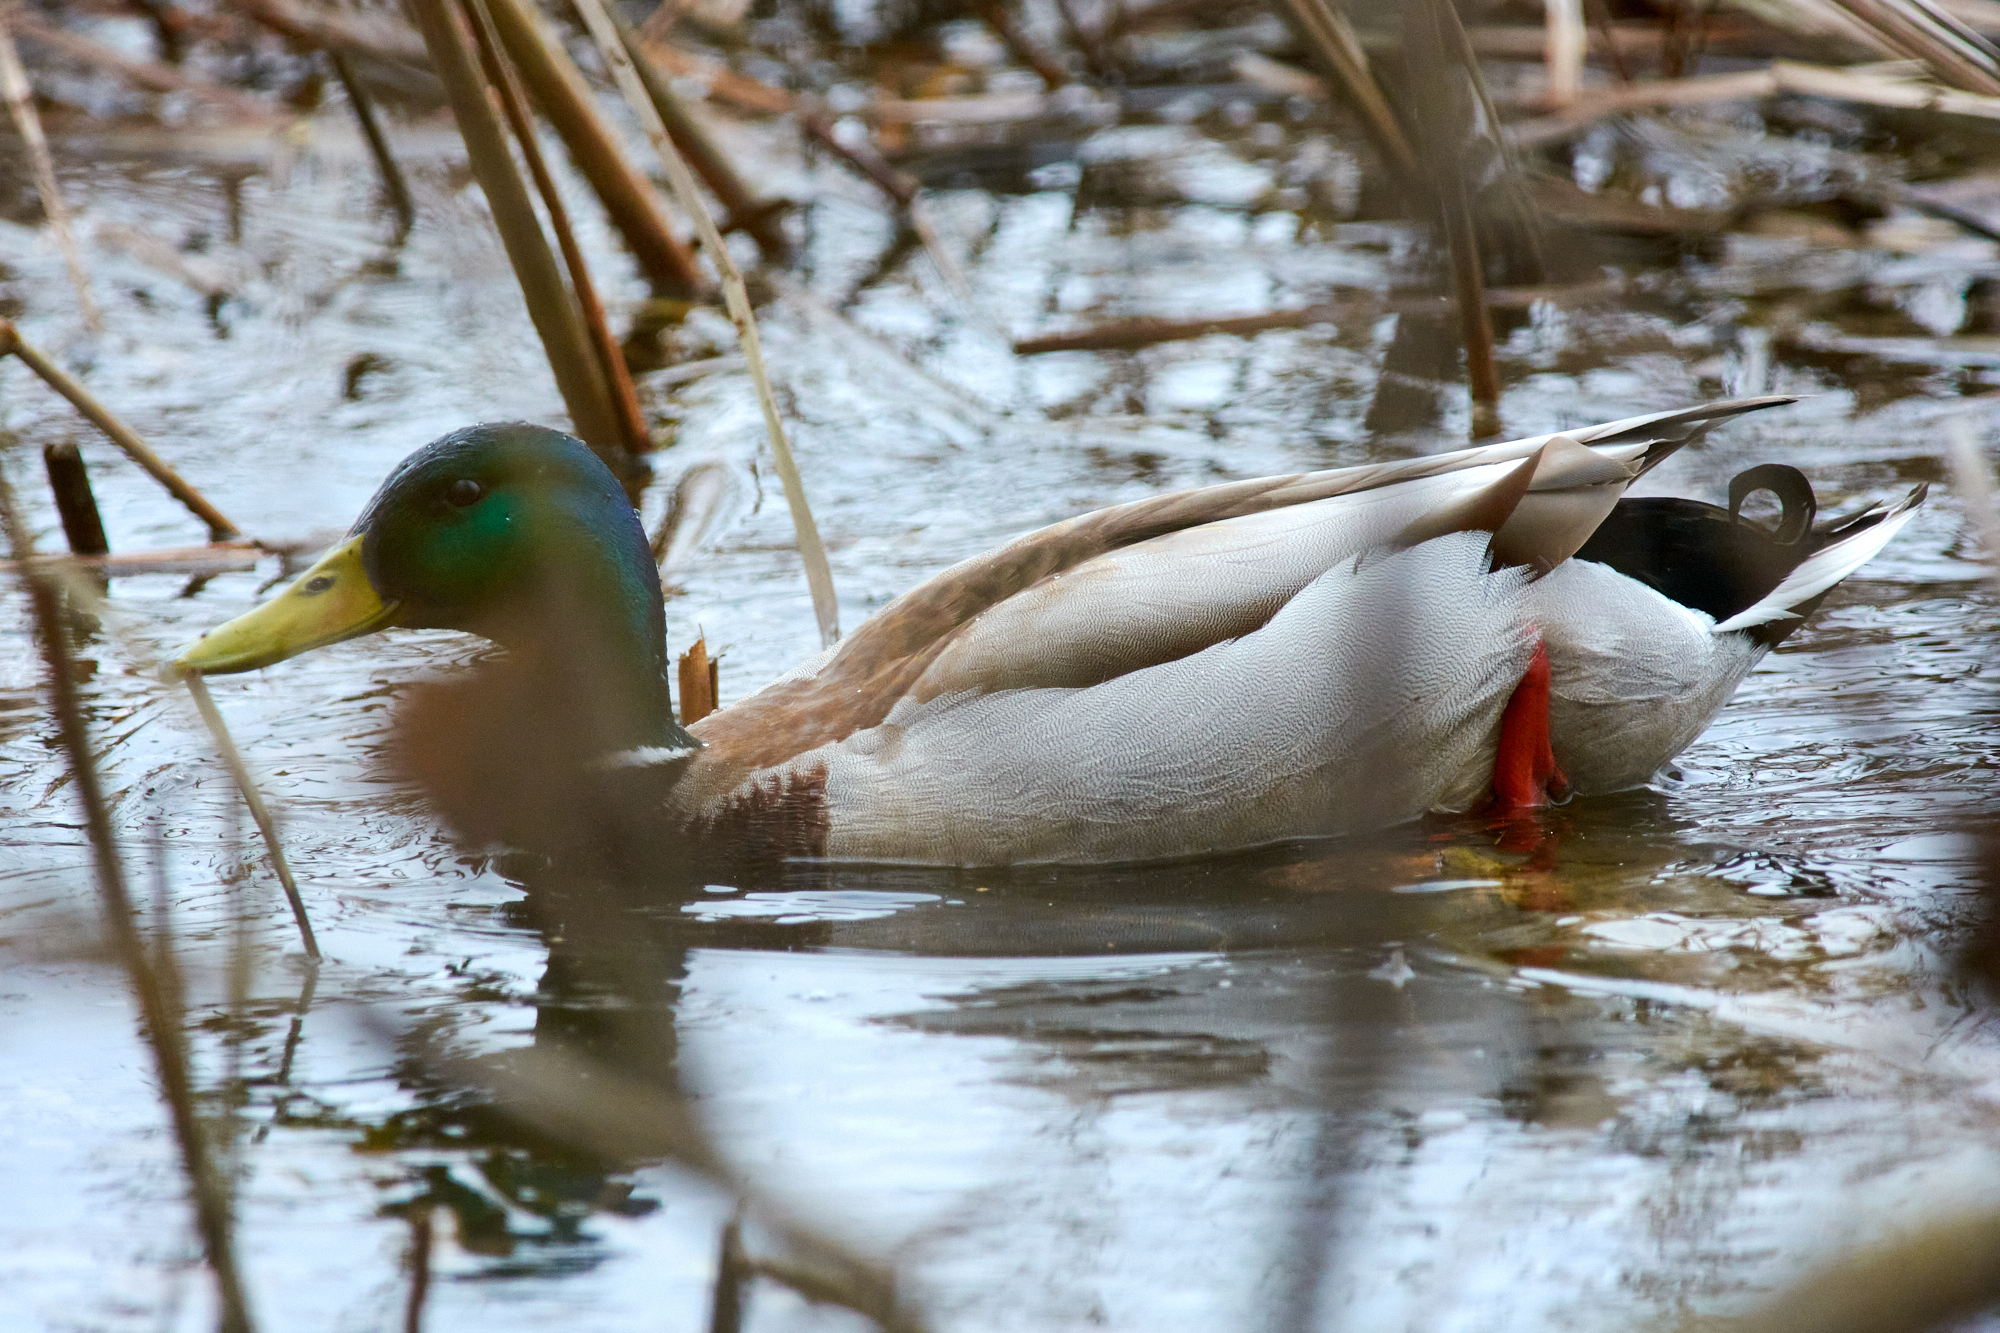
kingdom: Animalia
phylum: Chordata
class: Aves
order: Anseriformes
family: Anatidae
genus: Anas
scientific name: Anas platyrhynchos
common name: Mallard
